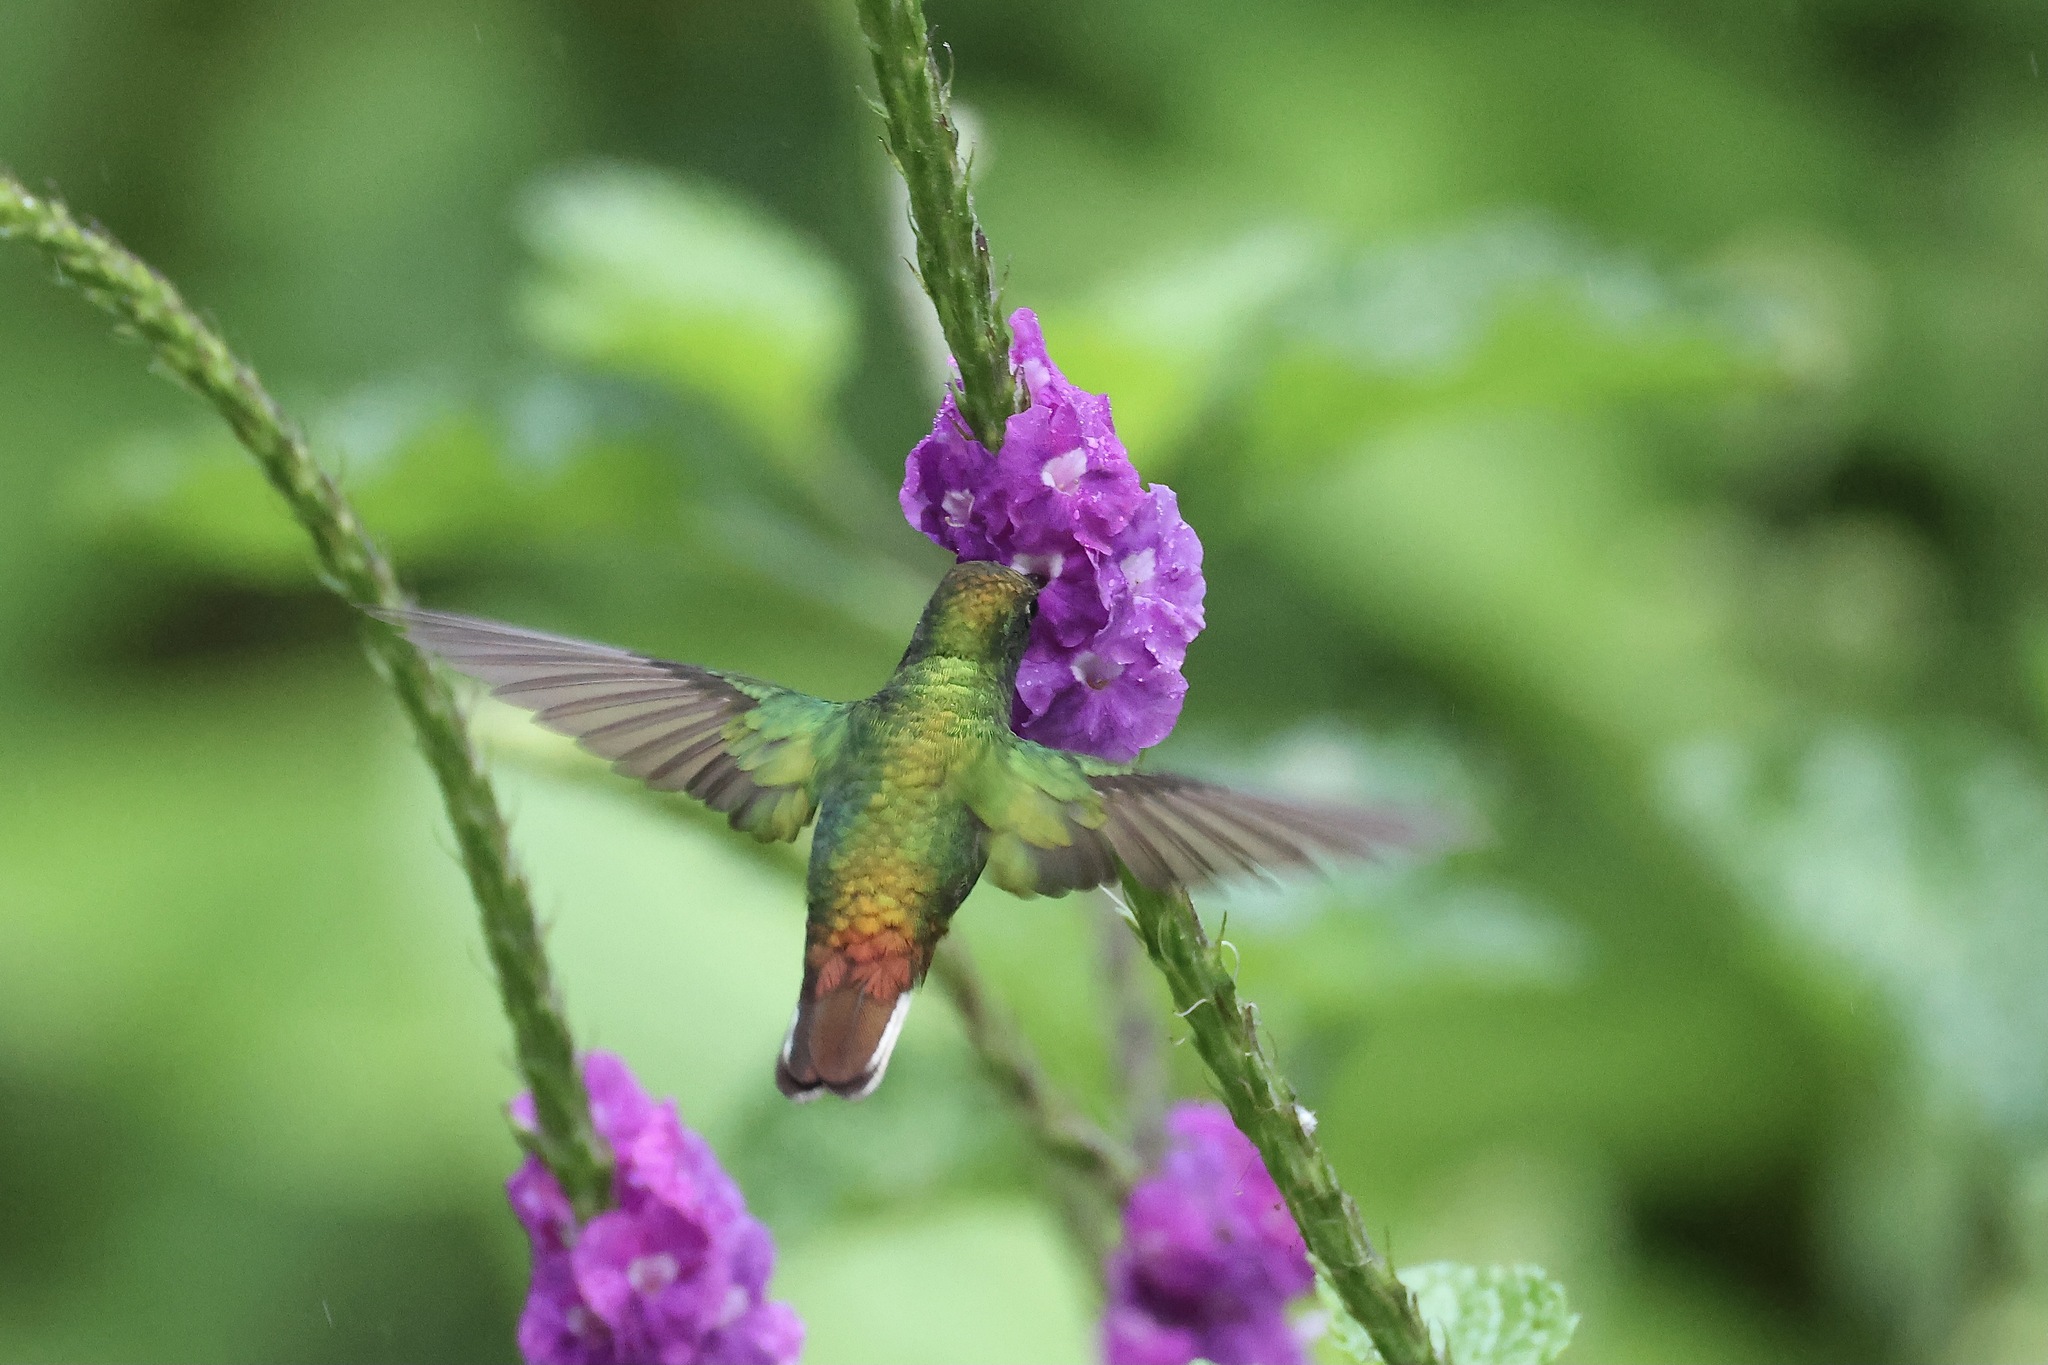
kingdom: Animalia
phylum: Chordata
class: Aves
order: Apodiformes
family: Trochilidae
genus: Microchera
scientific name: Microchera cupreiceps
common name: Coppery-headed emerald
